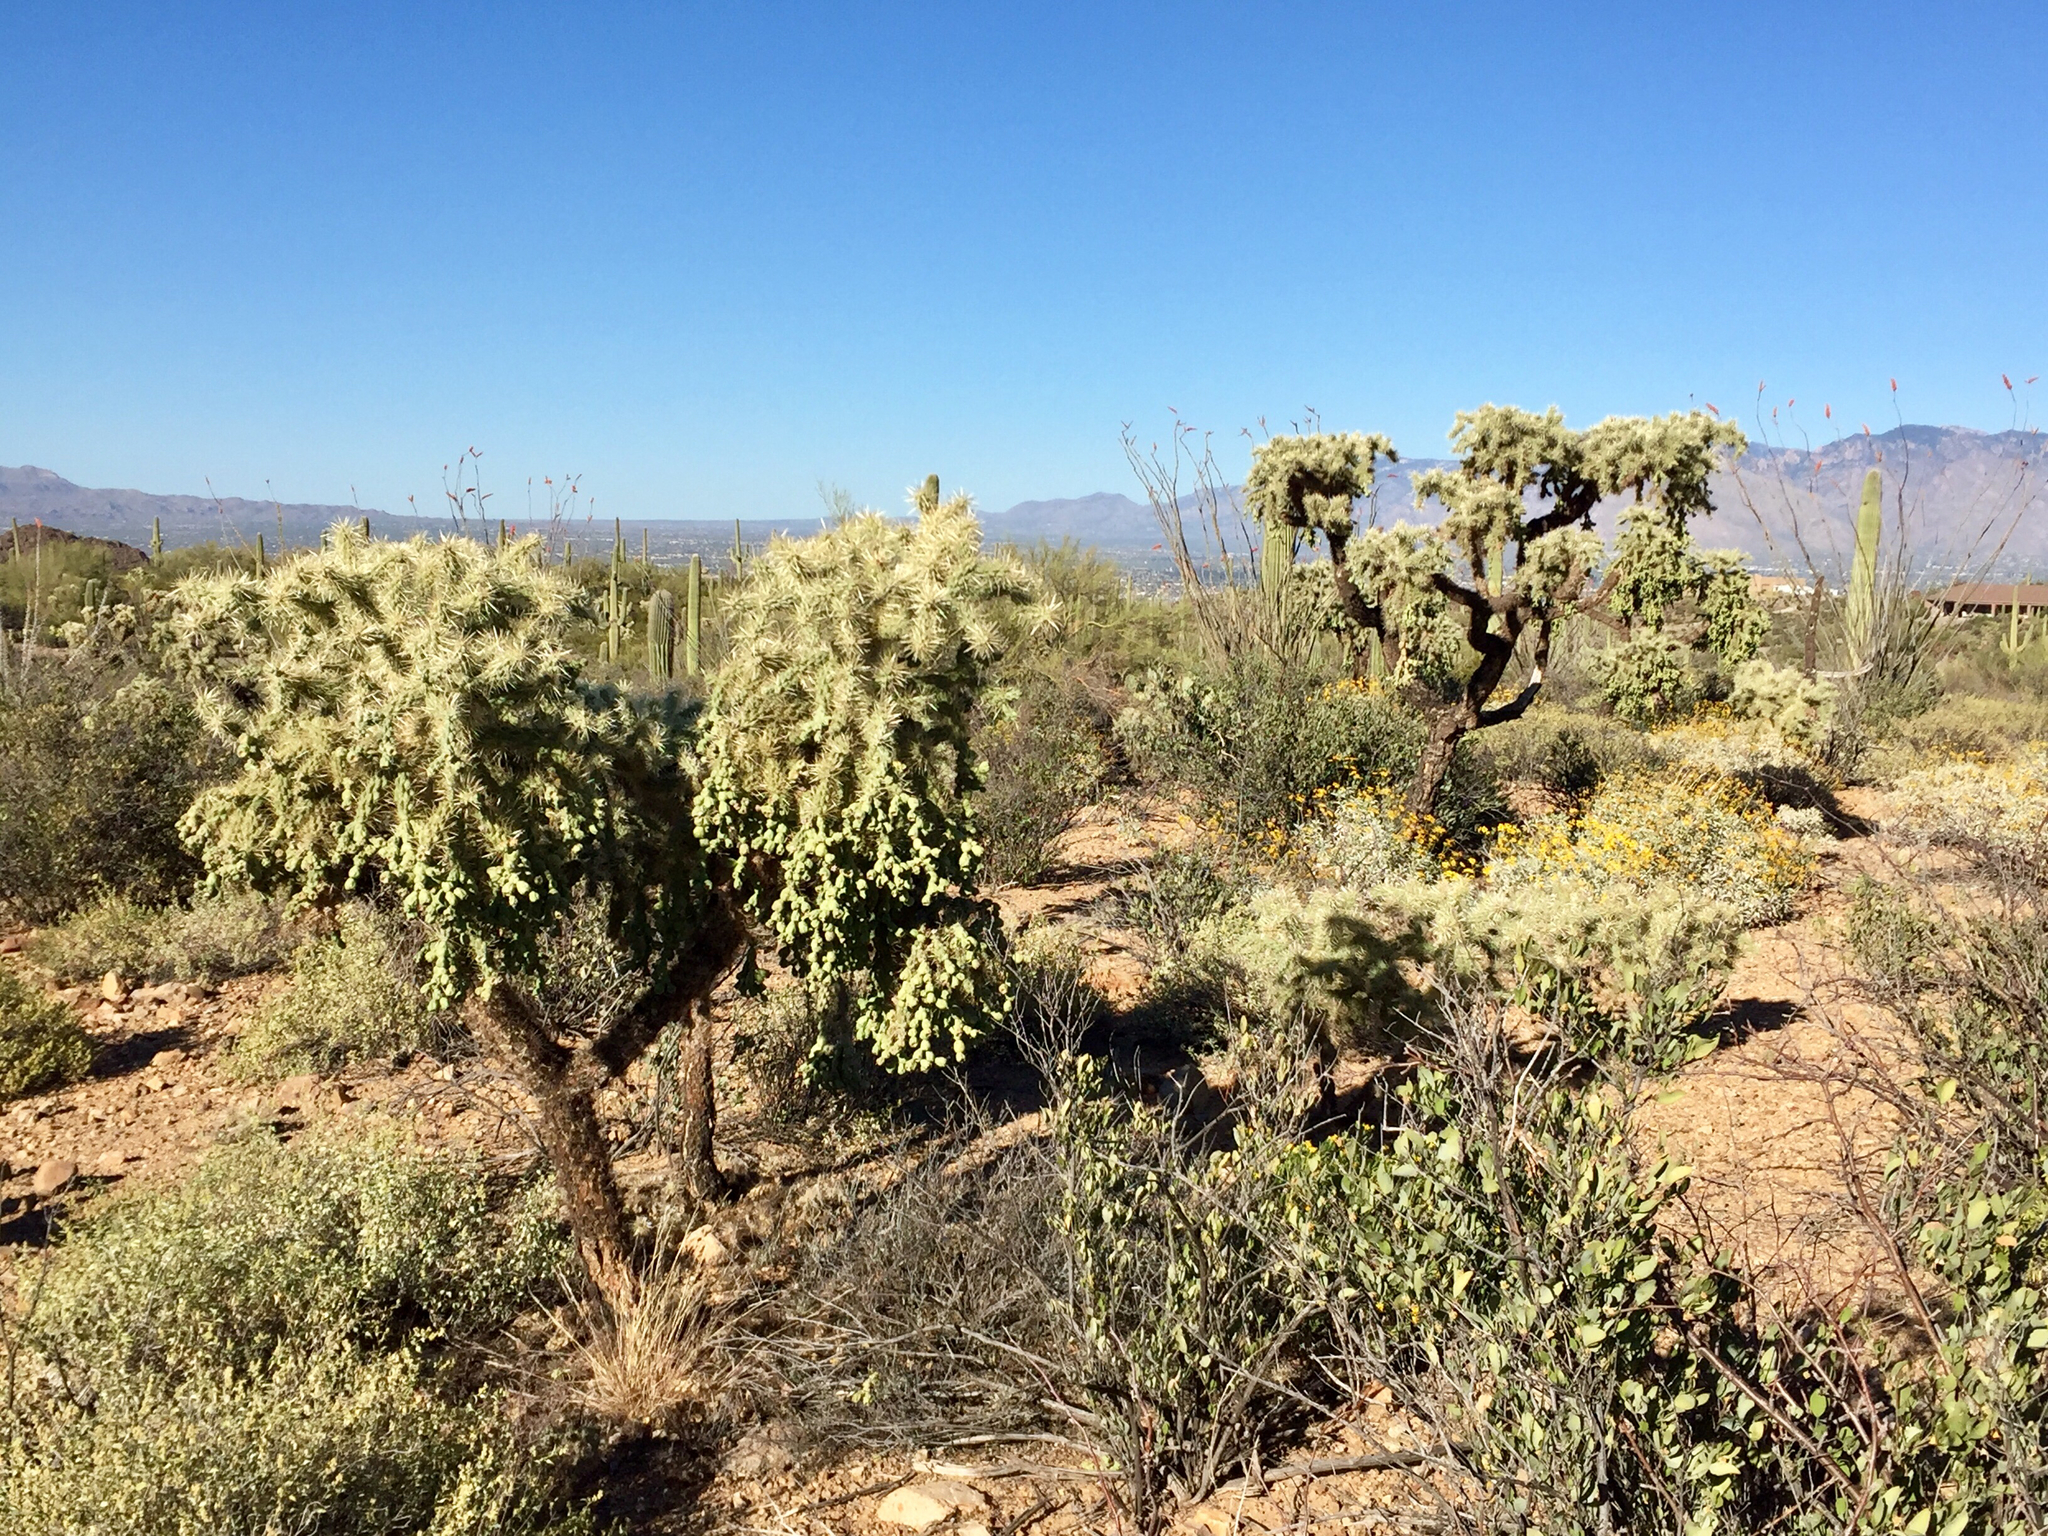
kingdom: Plantae
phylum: Tracheophyta
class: Magnoliopsida
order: Caryophyllales
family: Cactaceae
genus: Cylindropuntia
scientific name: Cylindropuntia fulgida
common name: Jumping cholla
